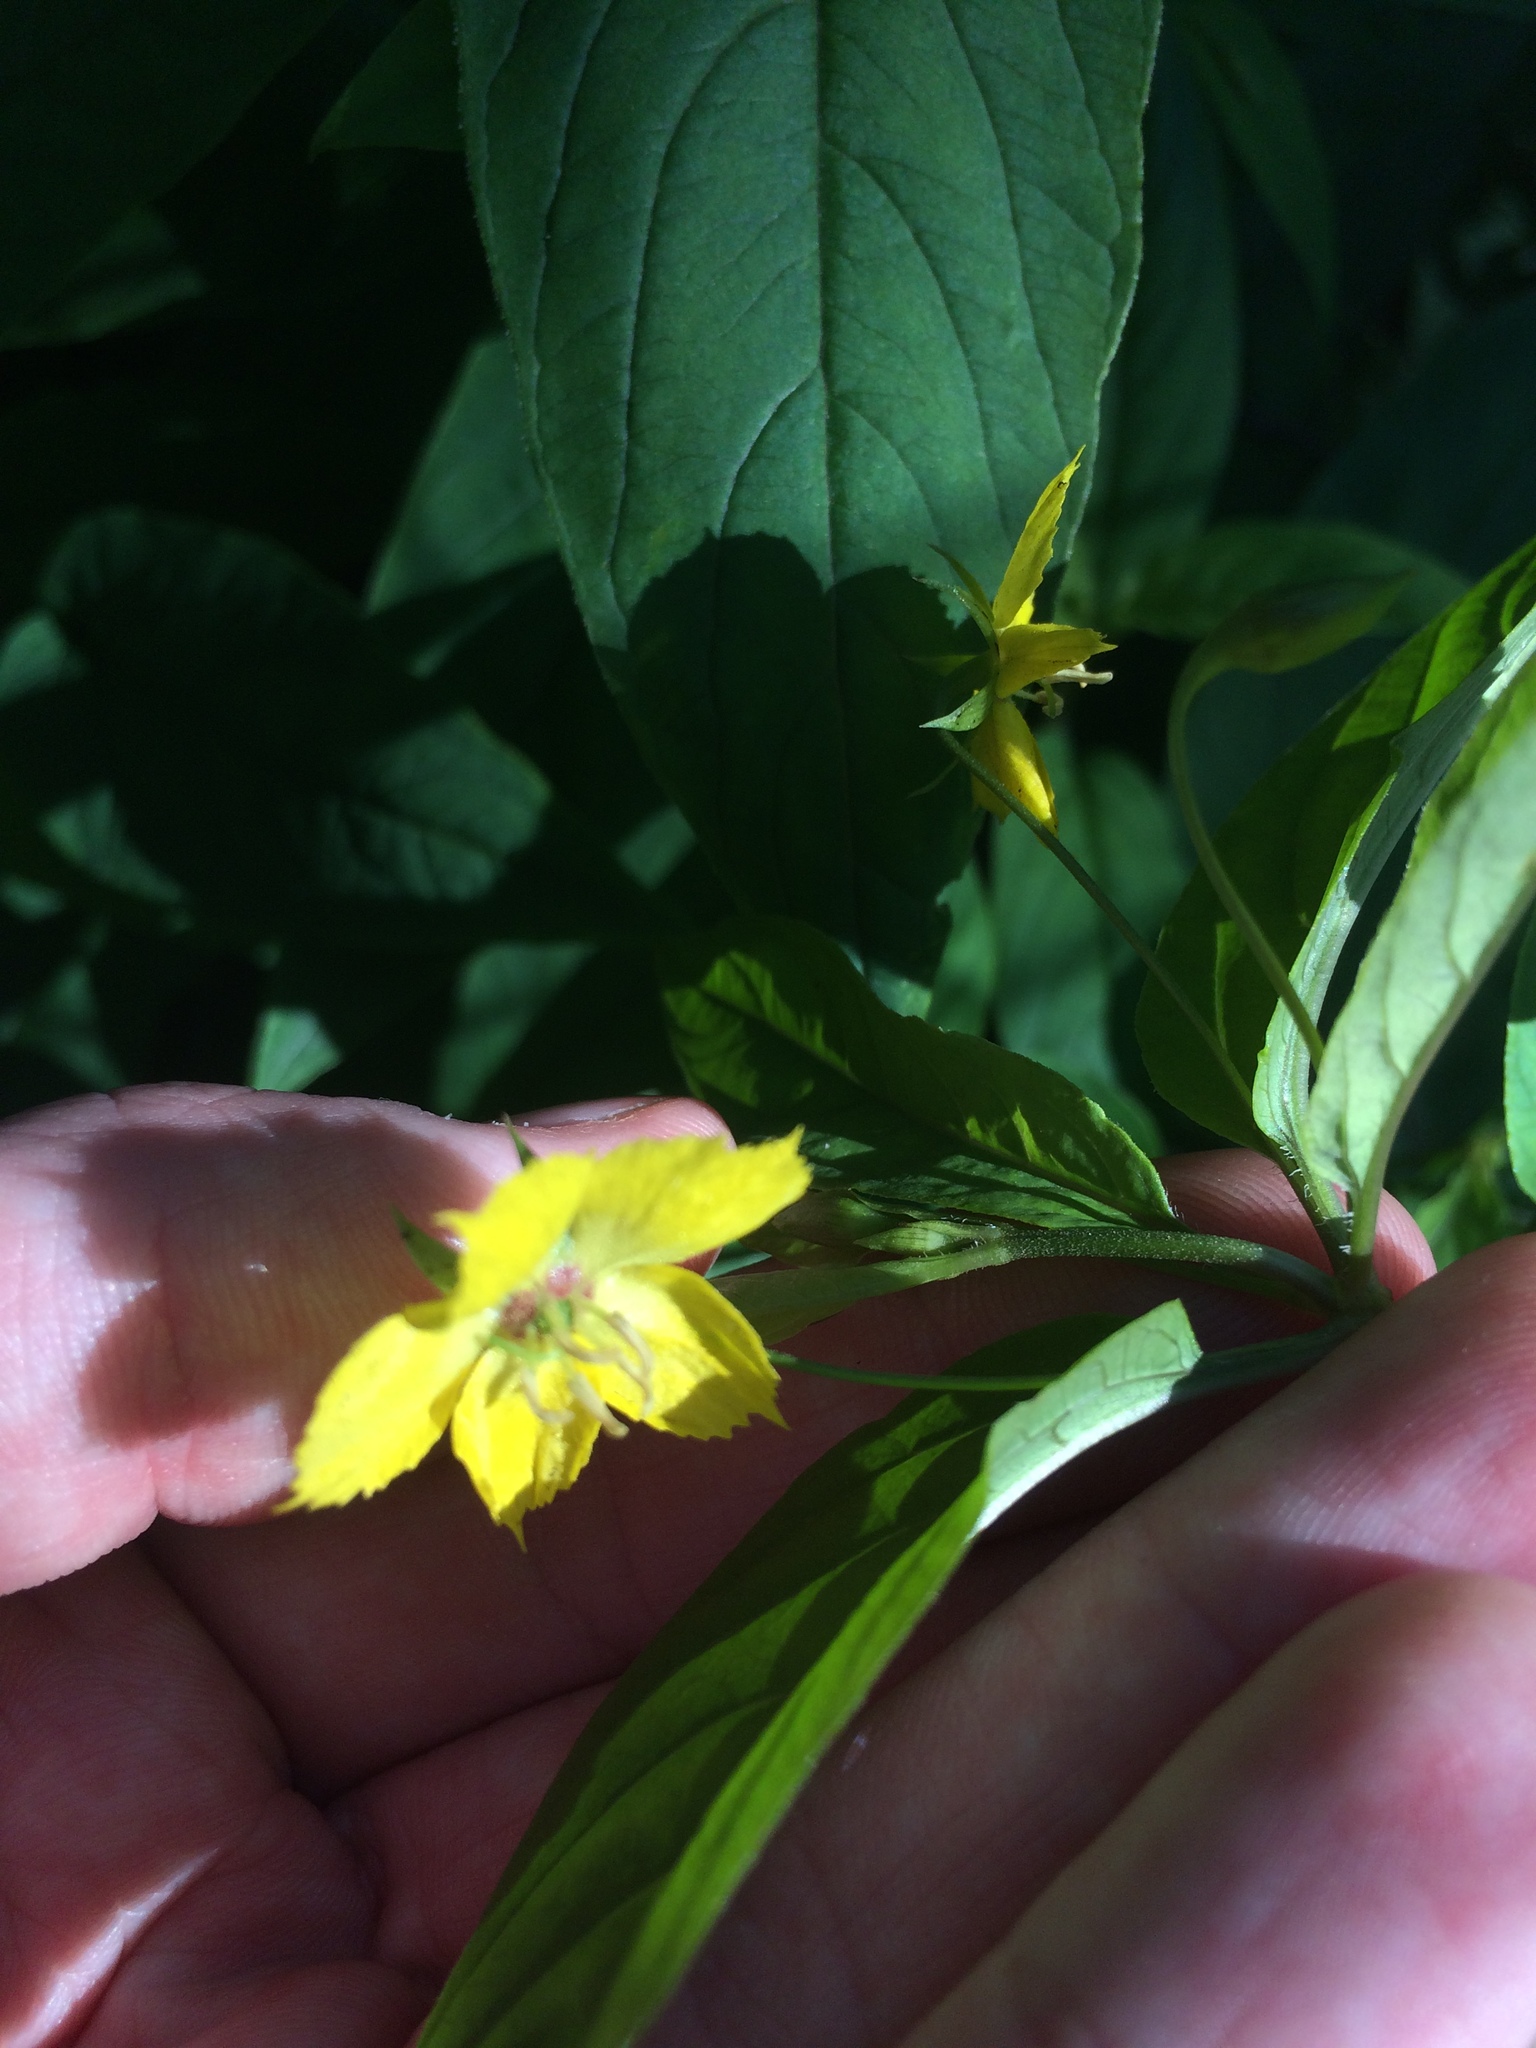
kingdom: Plantae
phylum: Tracheophyta
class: Magnoliopsida
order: Ericales
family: Primulaceae
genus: Lysimachia
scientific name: Lysimachia ciliata
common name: Fringed loosestrife
